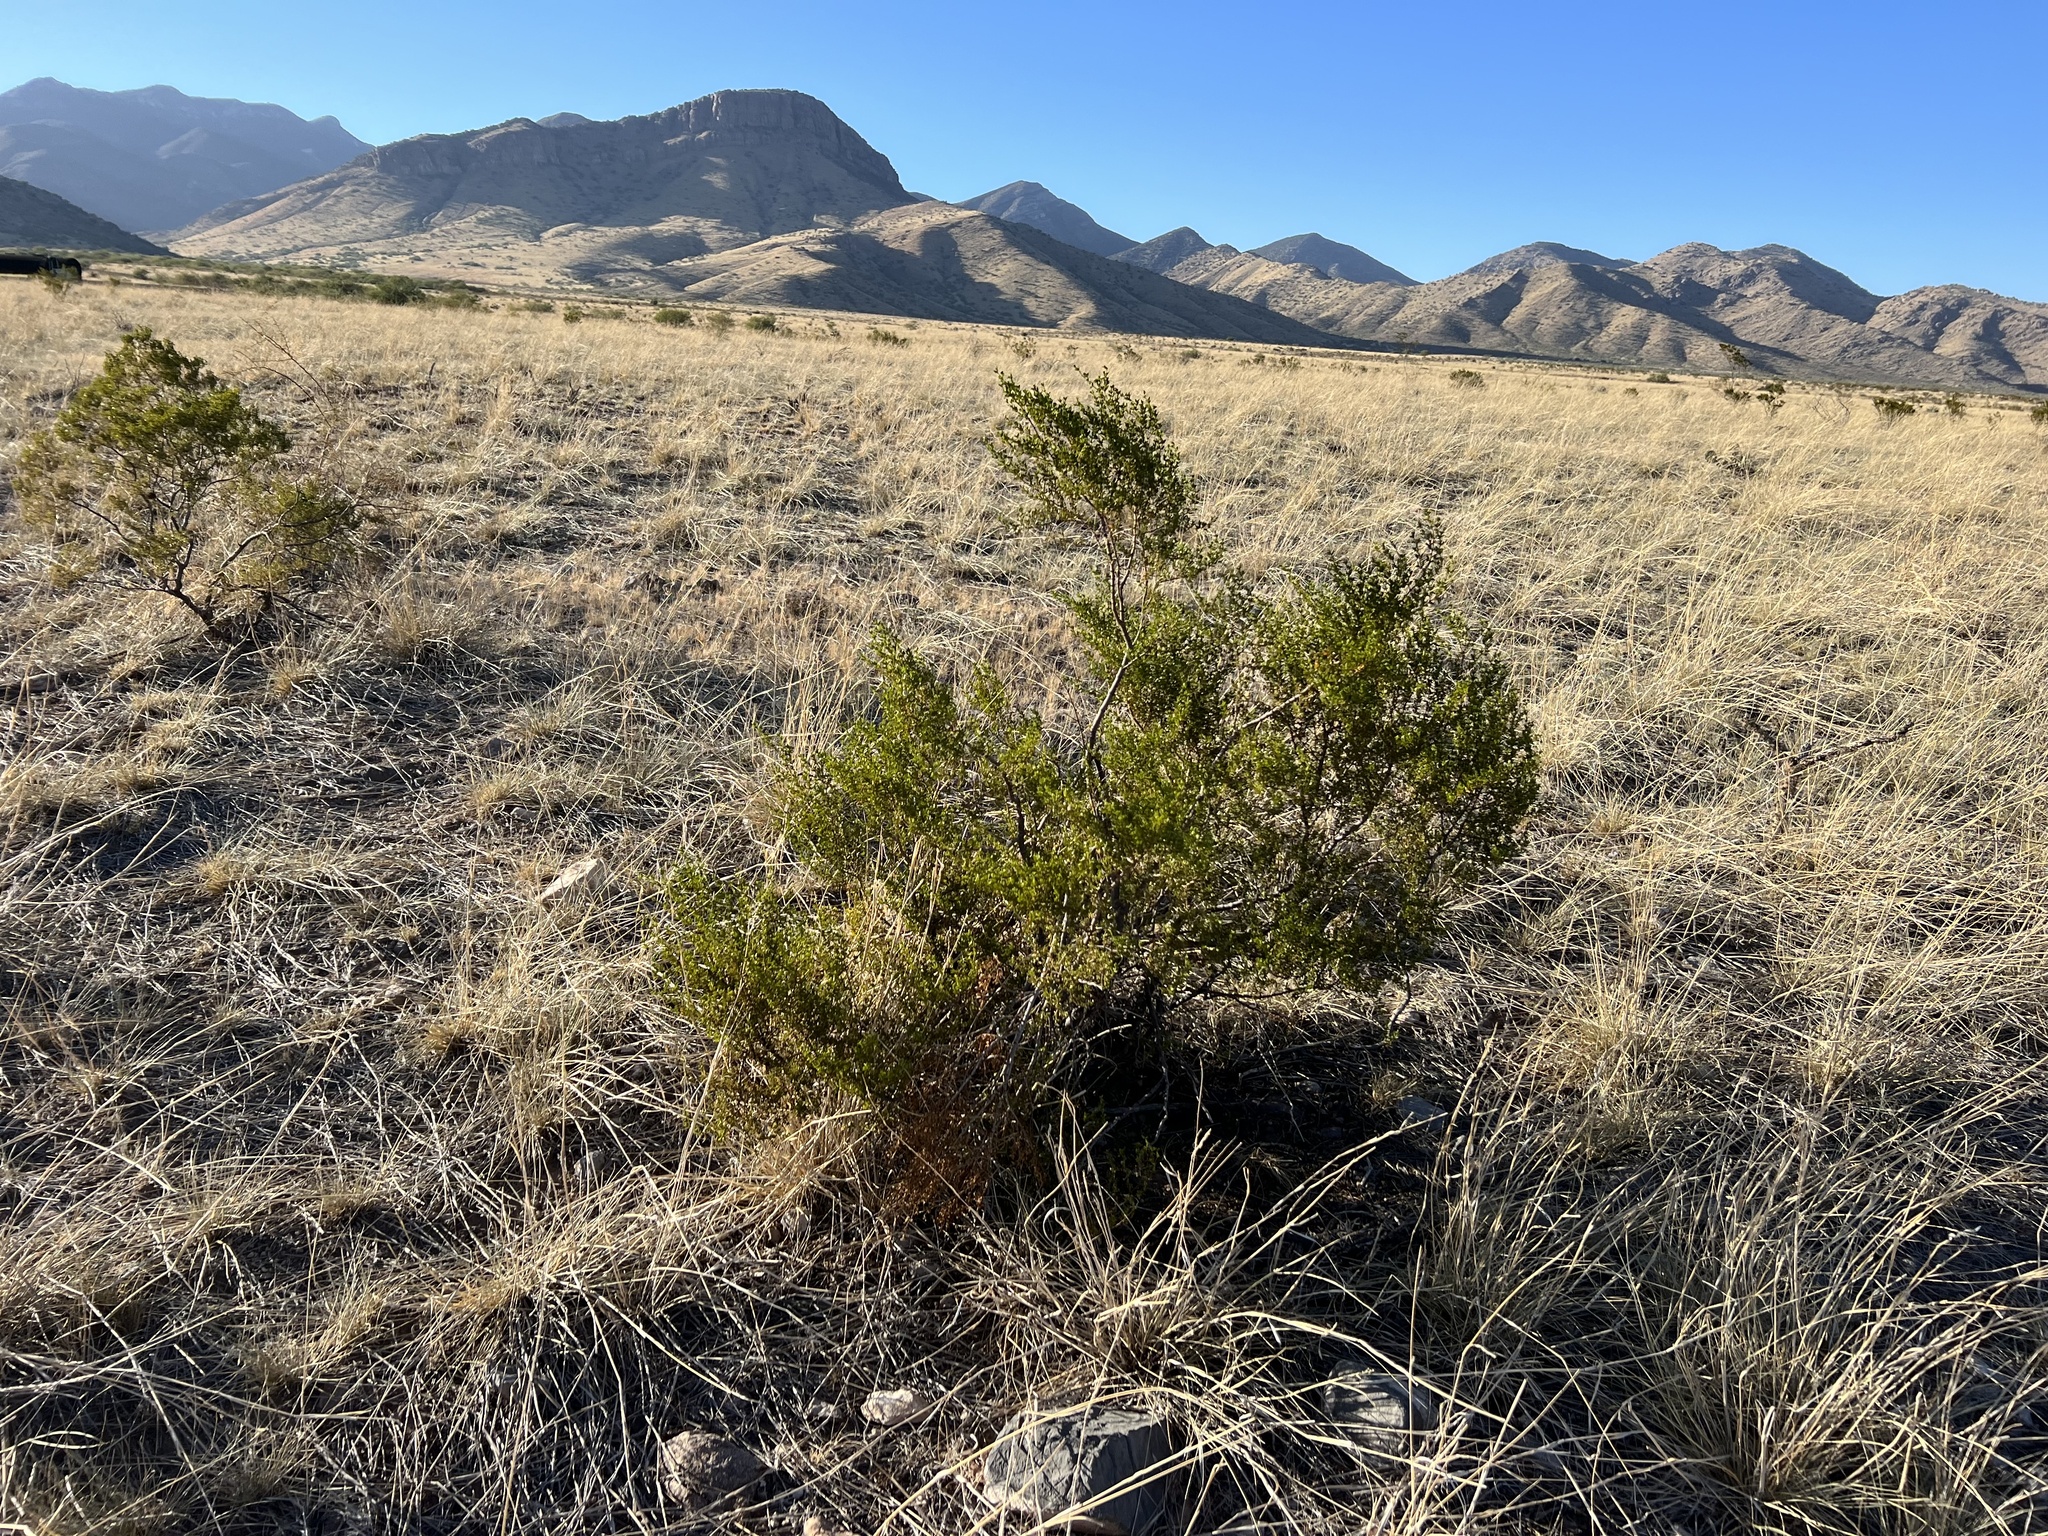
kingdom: Plantae
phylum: Tracheophyta
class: Magnoliopsida
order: Zygophyllales
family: Zygophyllaceae
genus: Larrea
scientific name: Larrea tridentata
